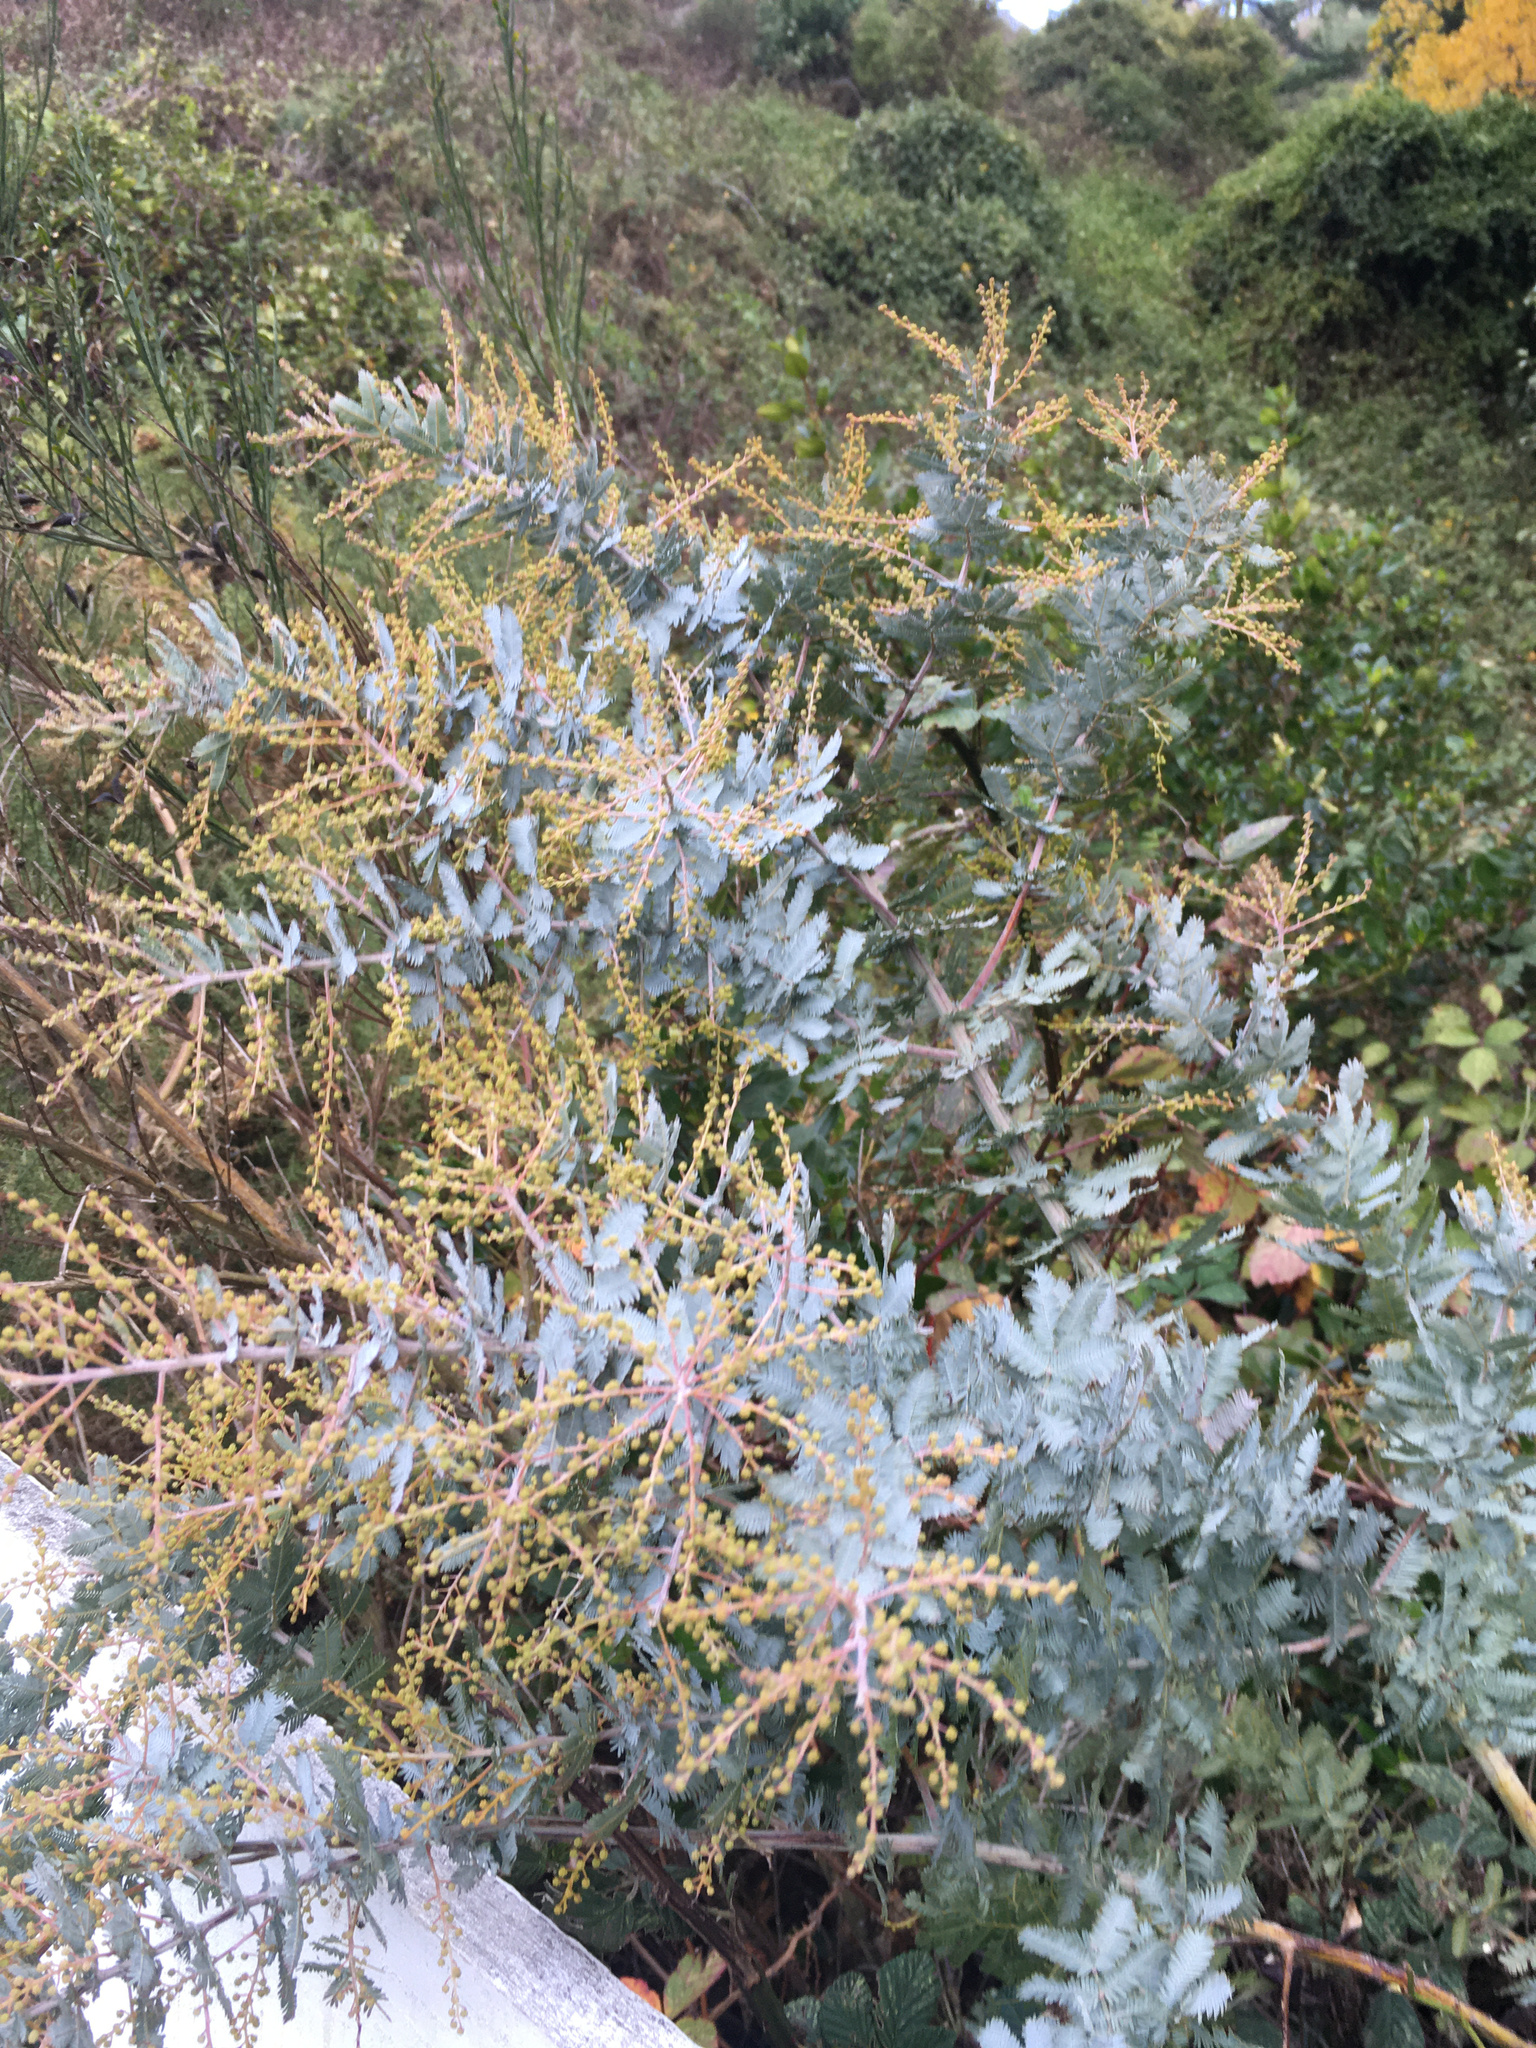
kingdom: Plantae
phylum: Tracheophyta
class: Magnoliopsida
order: Fabales
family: Fabaceae
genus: Acacia
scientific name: Acacia baileyana
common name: Cootamundra wattle
